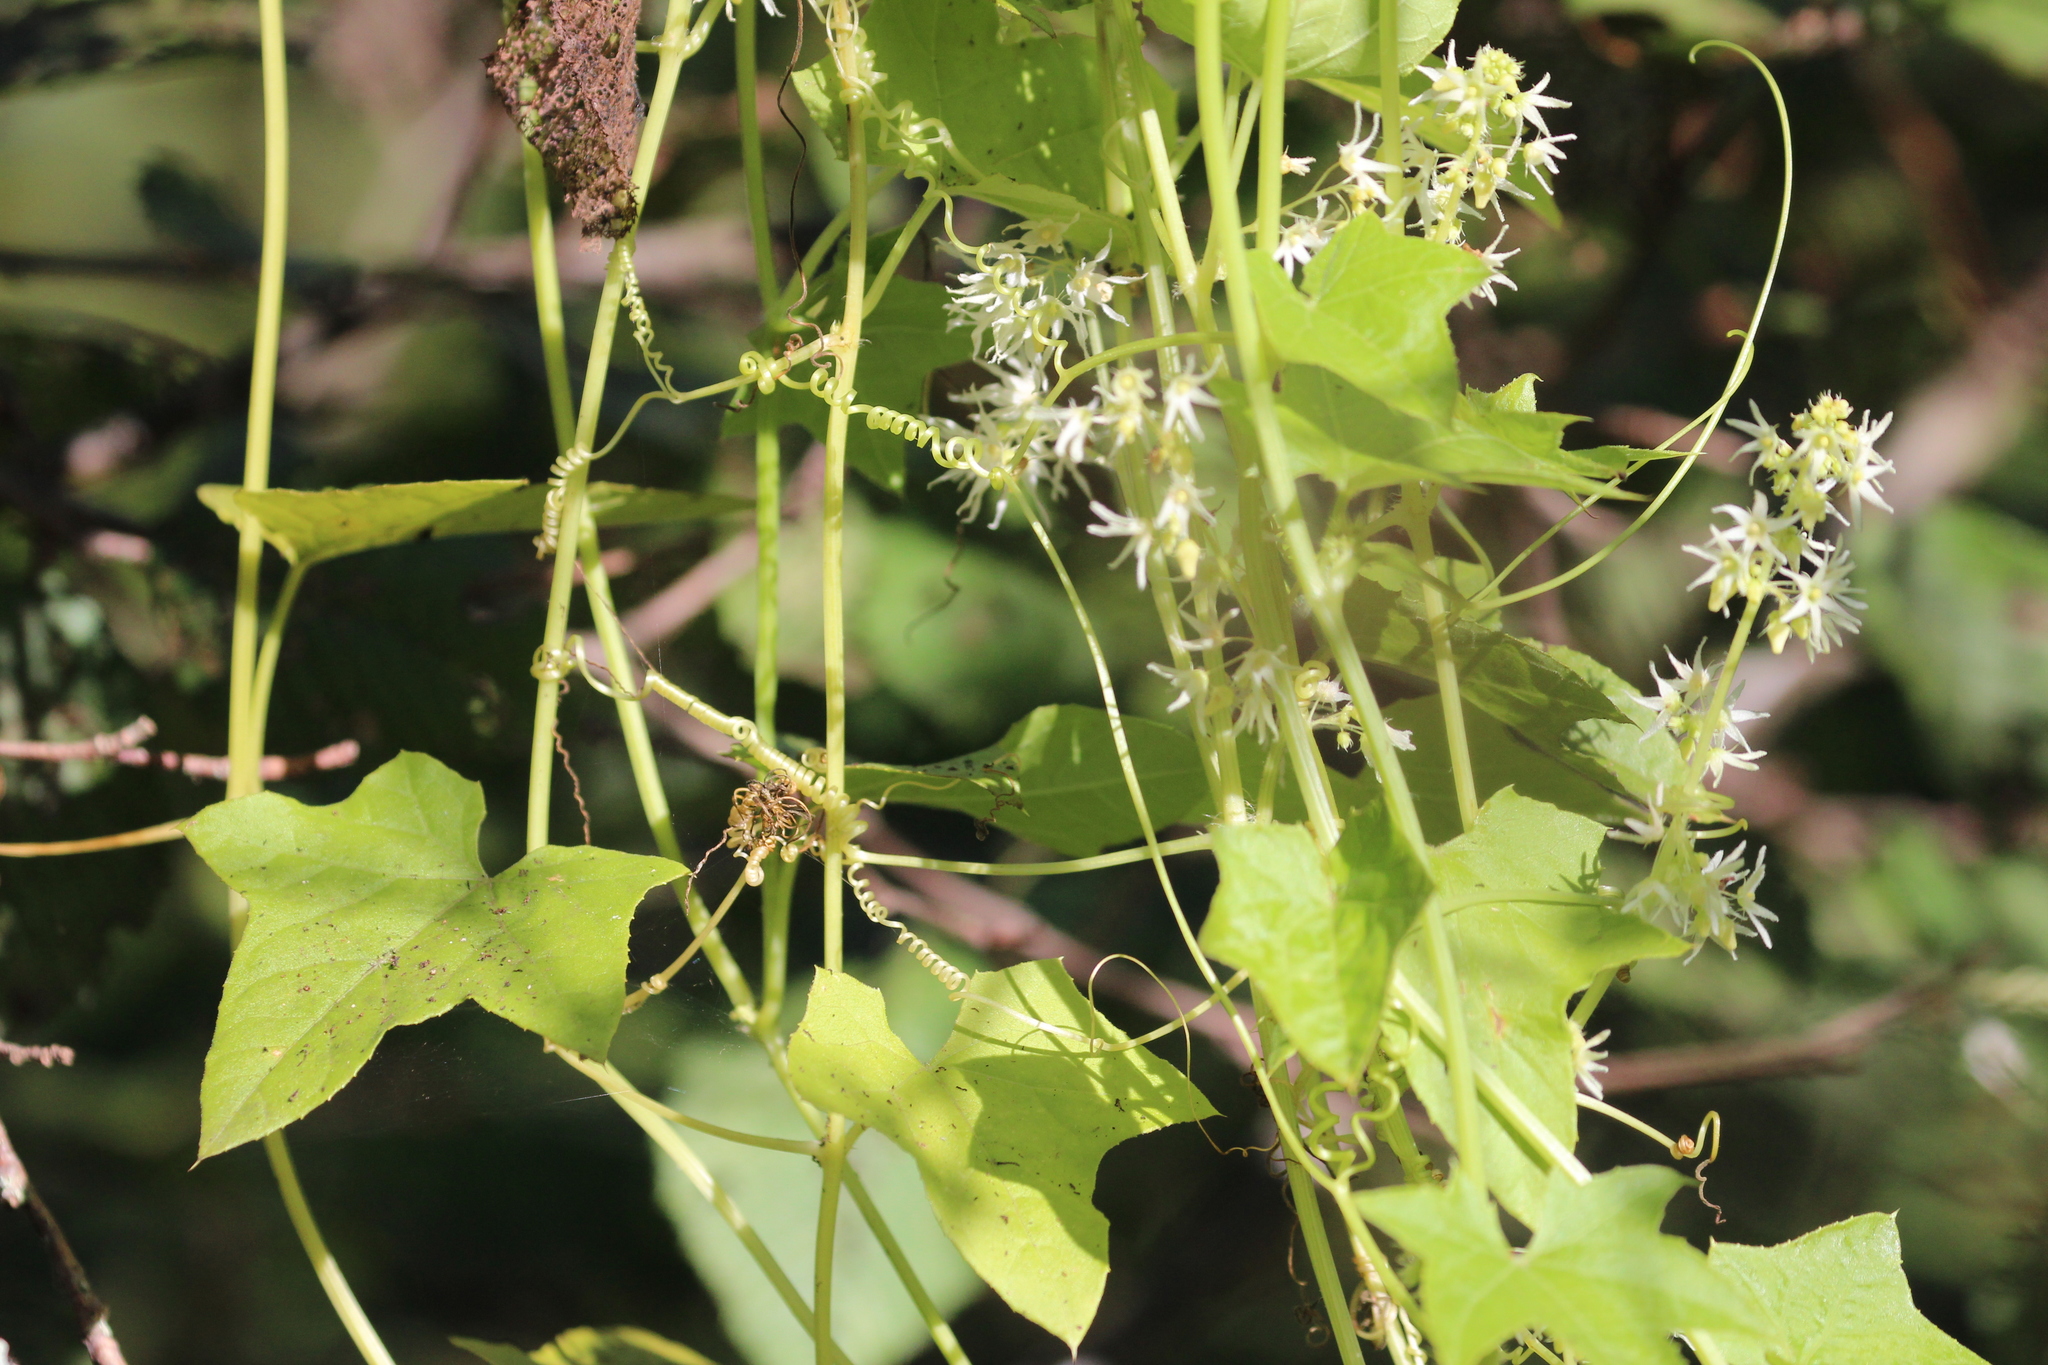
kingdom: Plantae
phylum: Tracheophyta
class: Magnoliopsida
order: Cucurbitales
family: Cucurbitaceae
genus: Echinocystis
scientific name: Echinocystis lobata
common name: Wild cucumber
